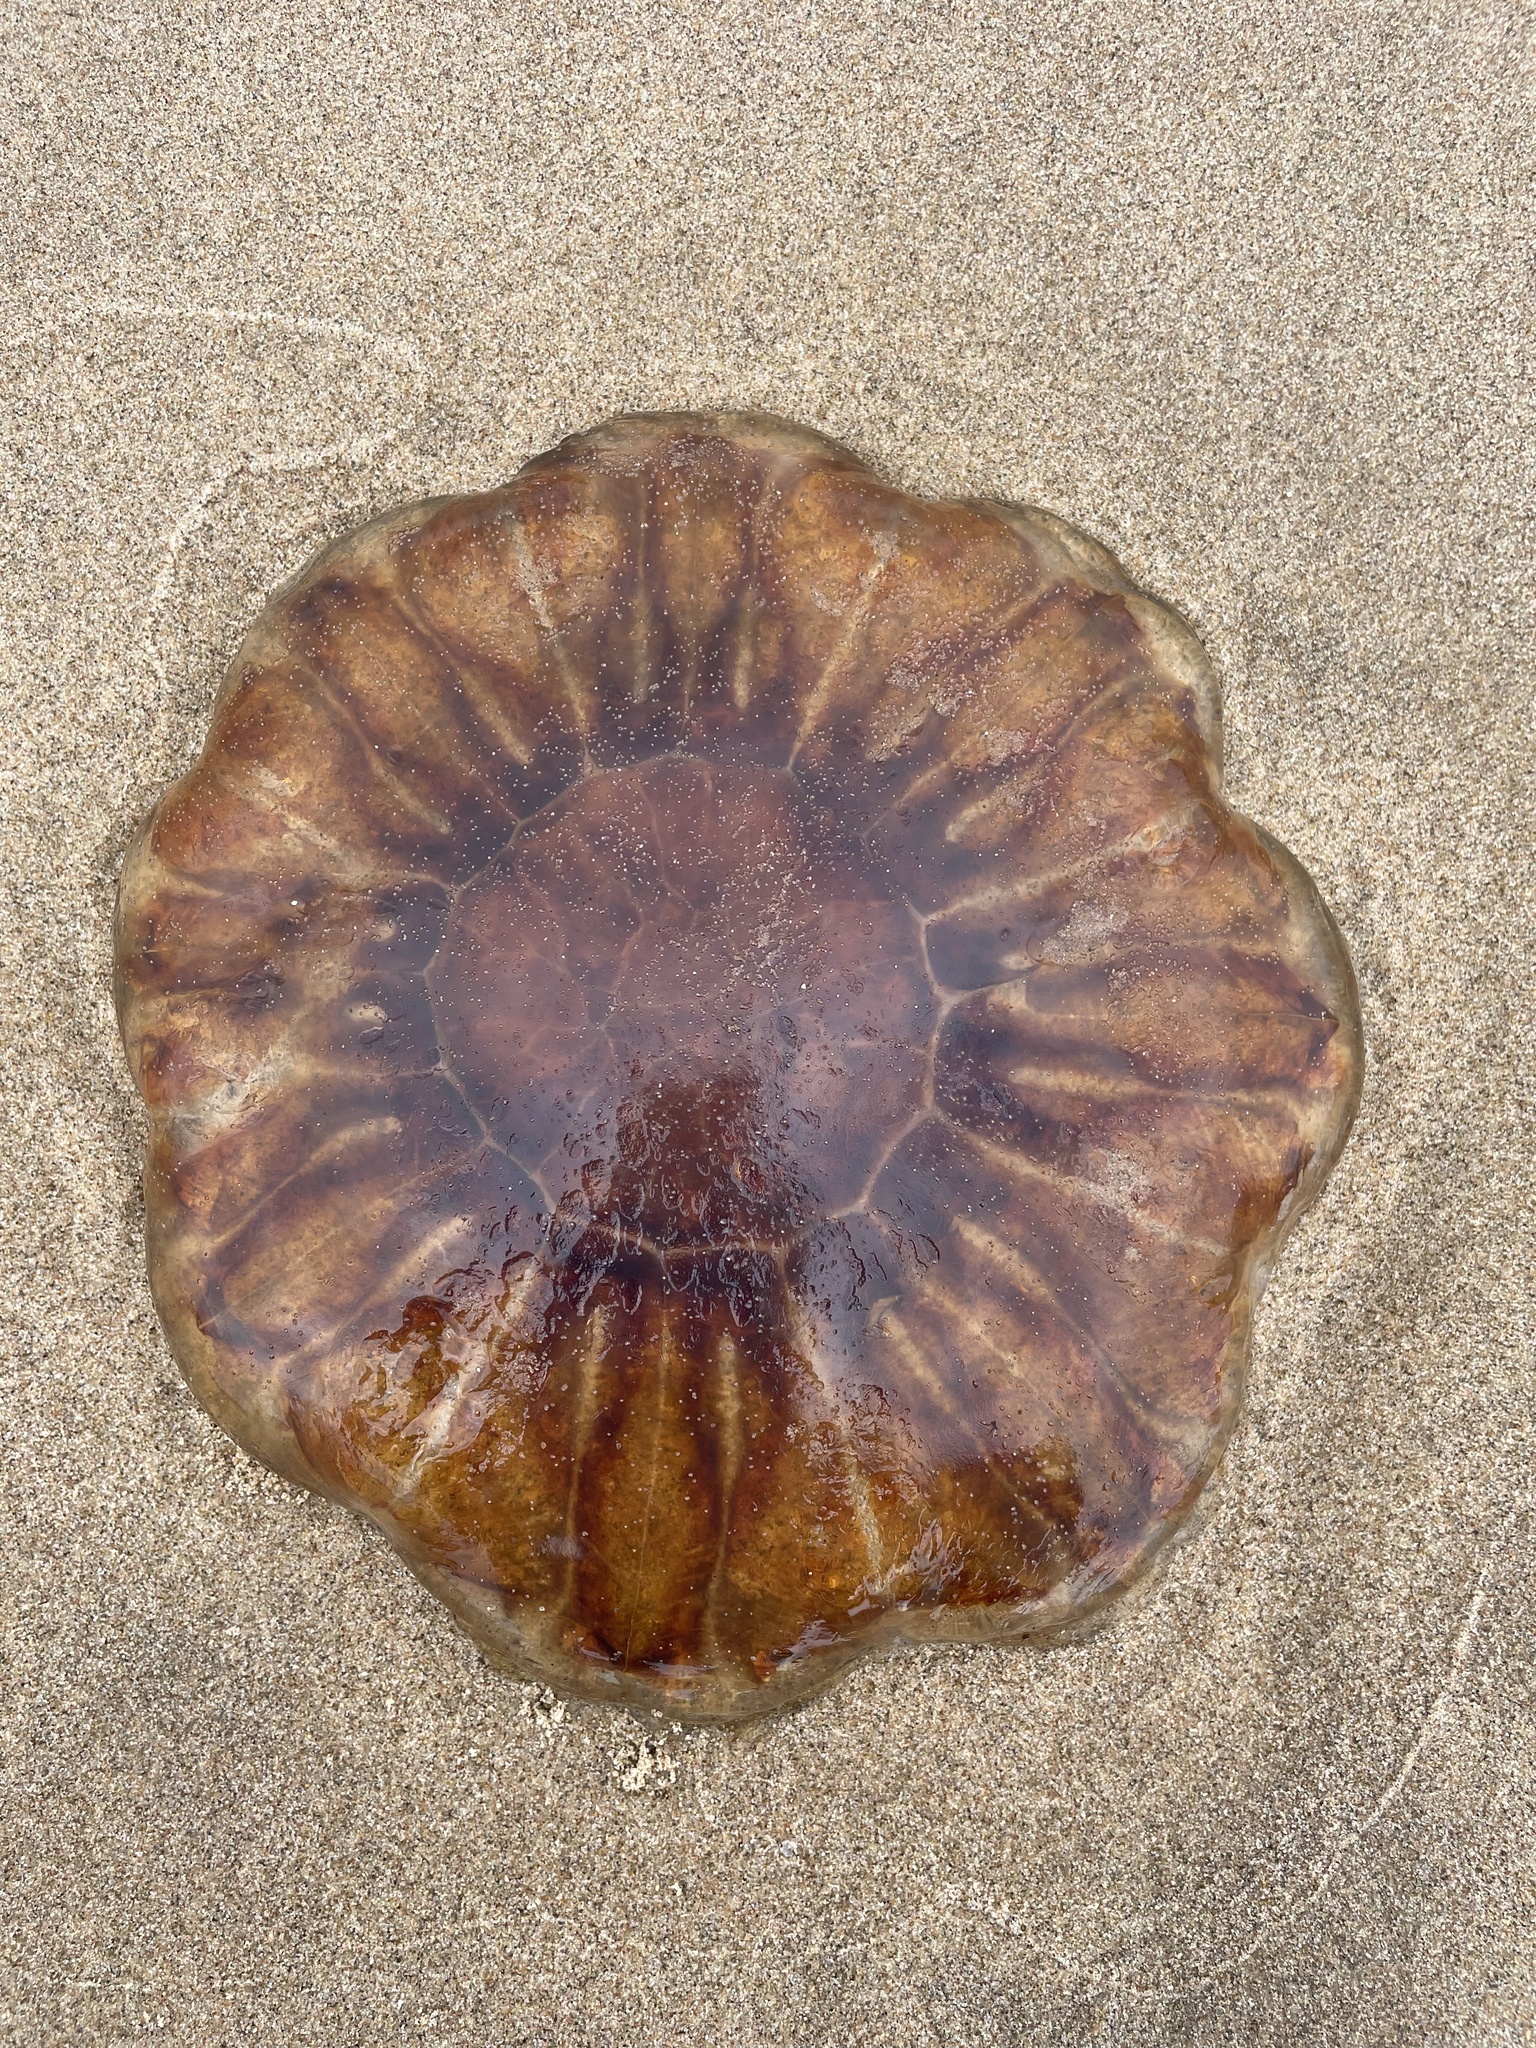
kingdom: Animalia
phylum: Cnidaria
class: Scyphozoa
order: Semaeostomeae
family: Cyaneidae
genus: Cyanea
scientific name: Cyanea capillata
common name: Lion's mane jellyfish
